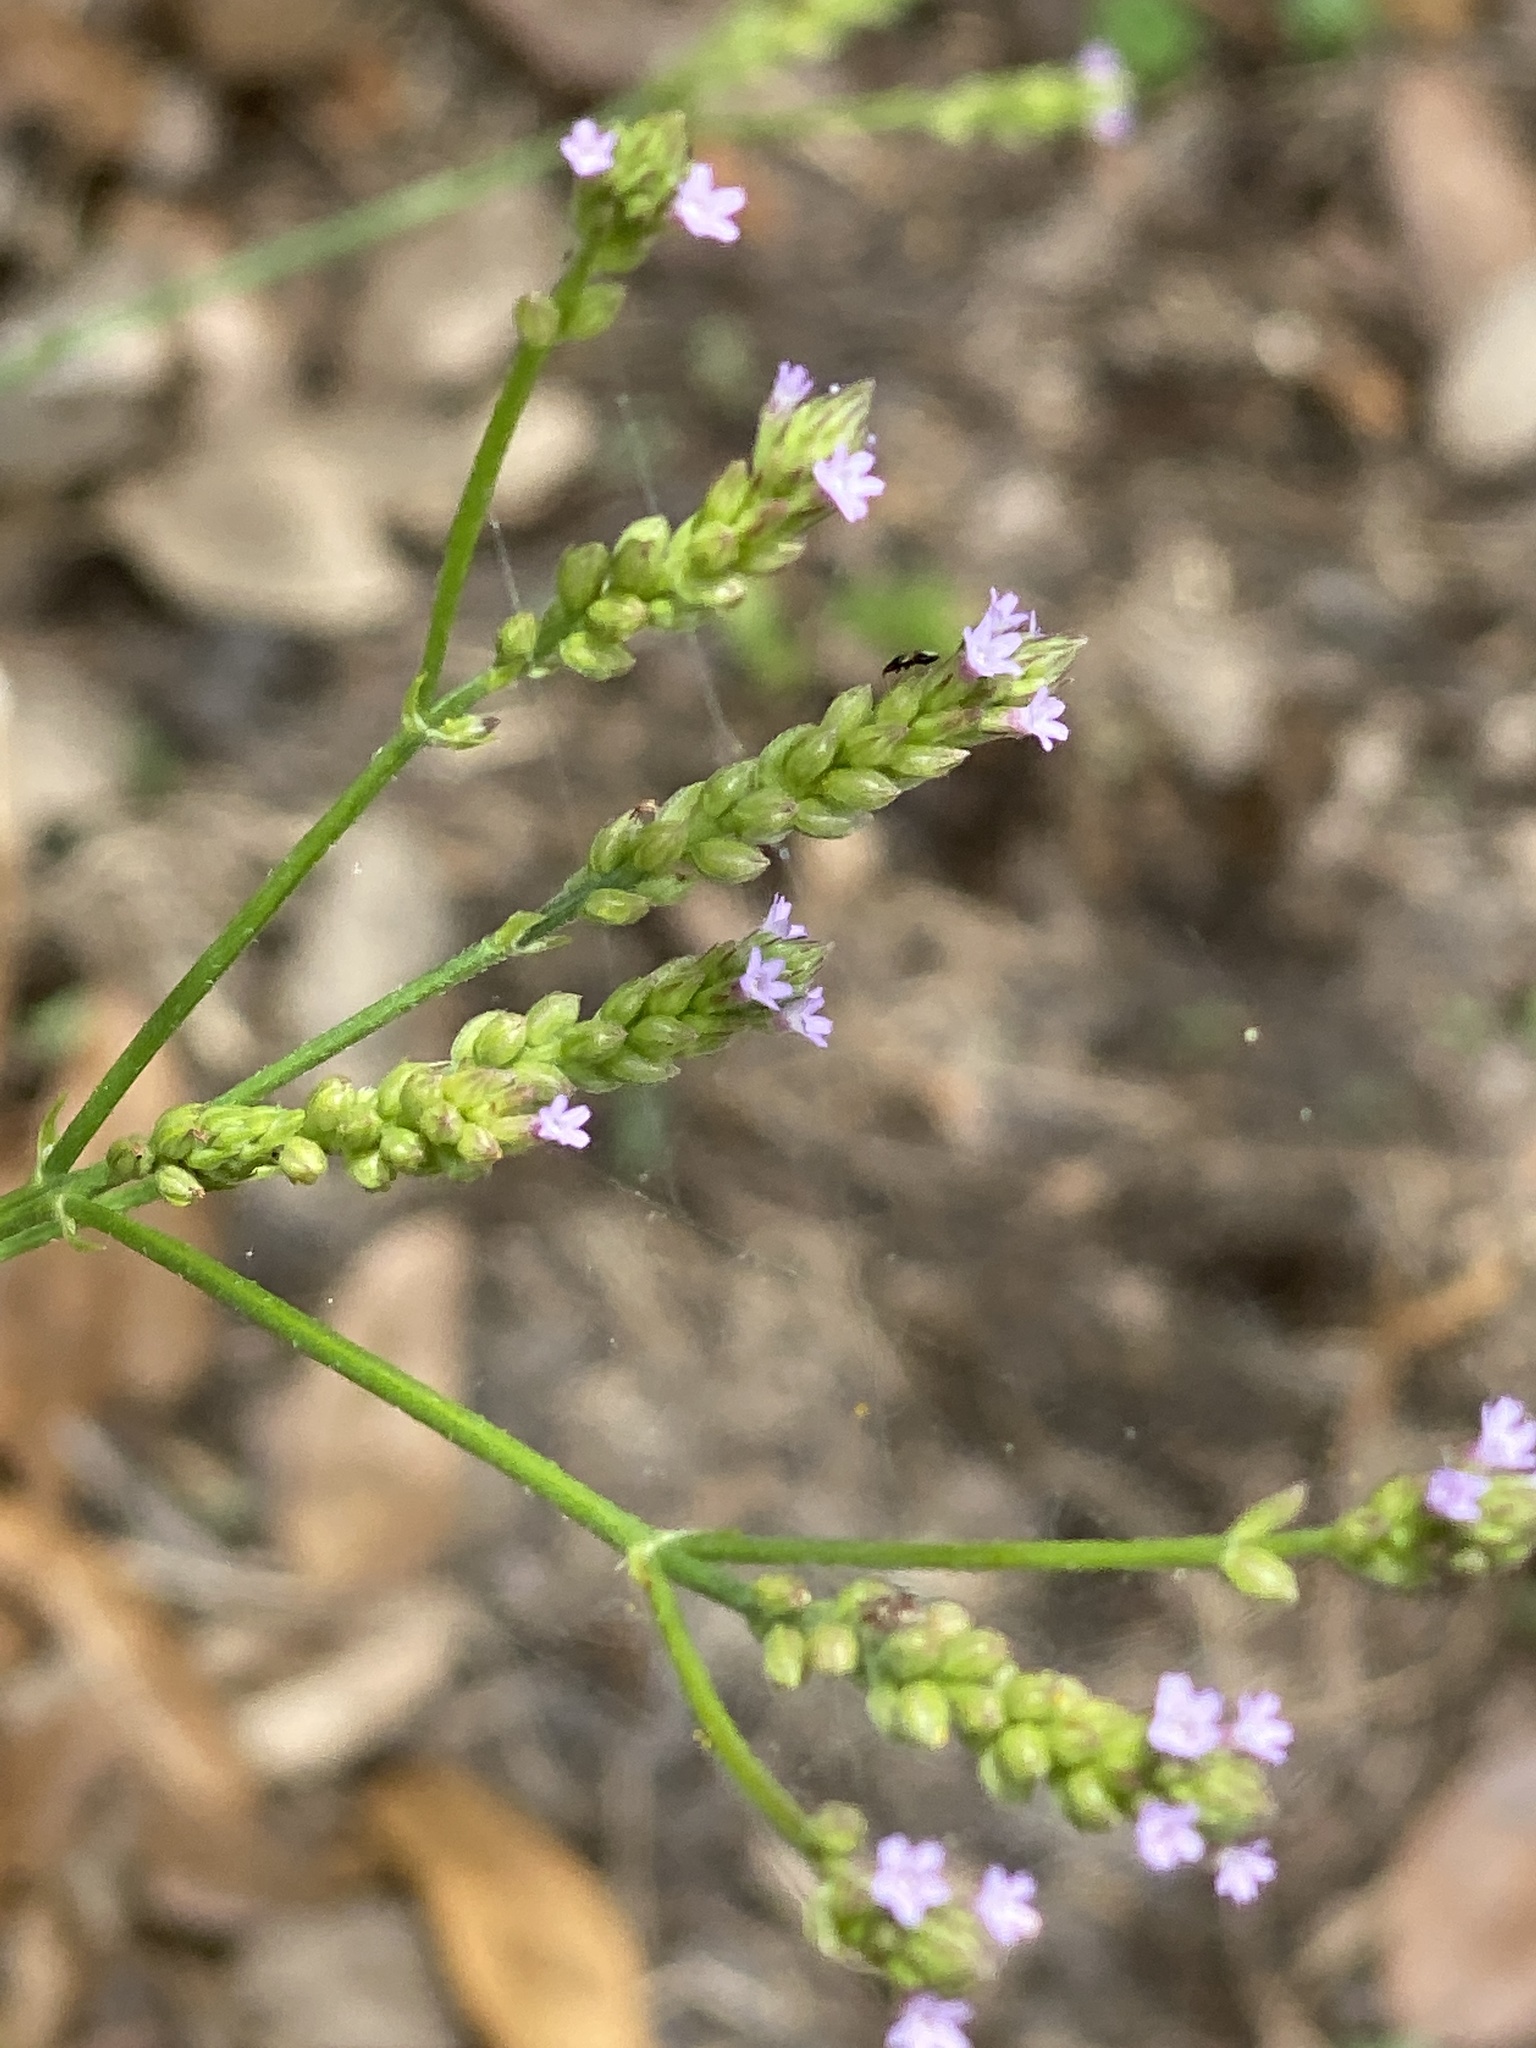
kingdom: Plantae
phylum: Tracheophyta
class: Magnoliopsida
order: Lamiales
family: Verbenaceae
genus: Verbena
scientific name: Verbena brasiliensis
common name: Brazilian vervain
